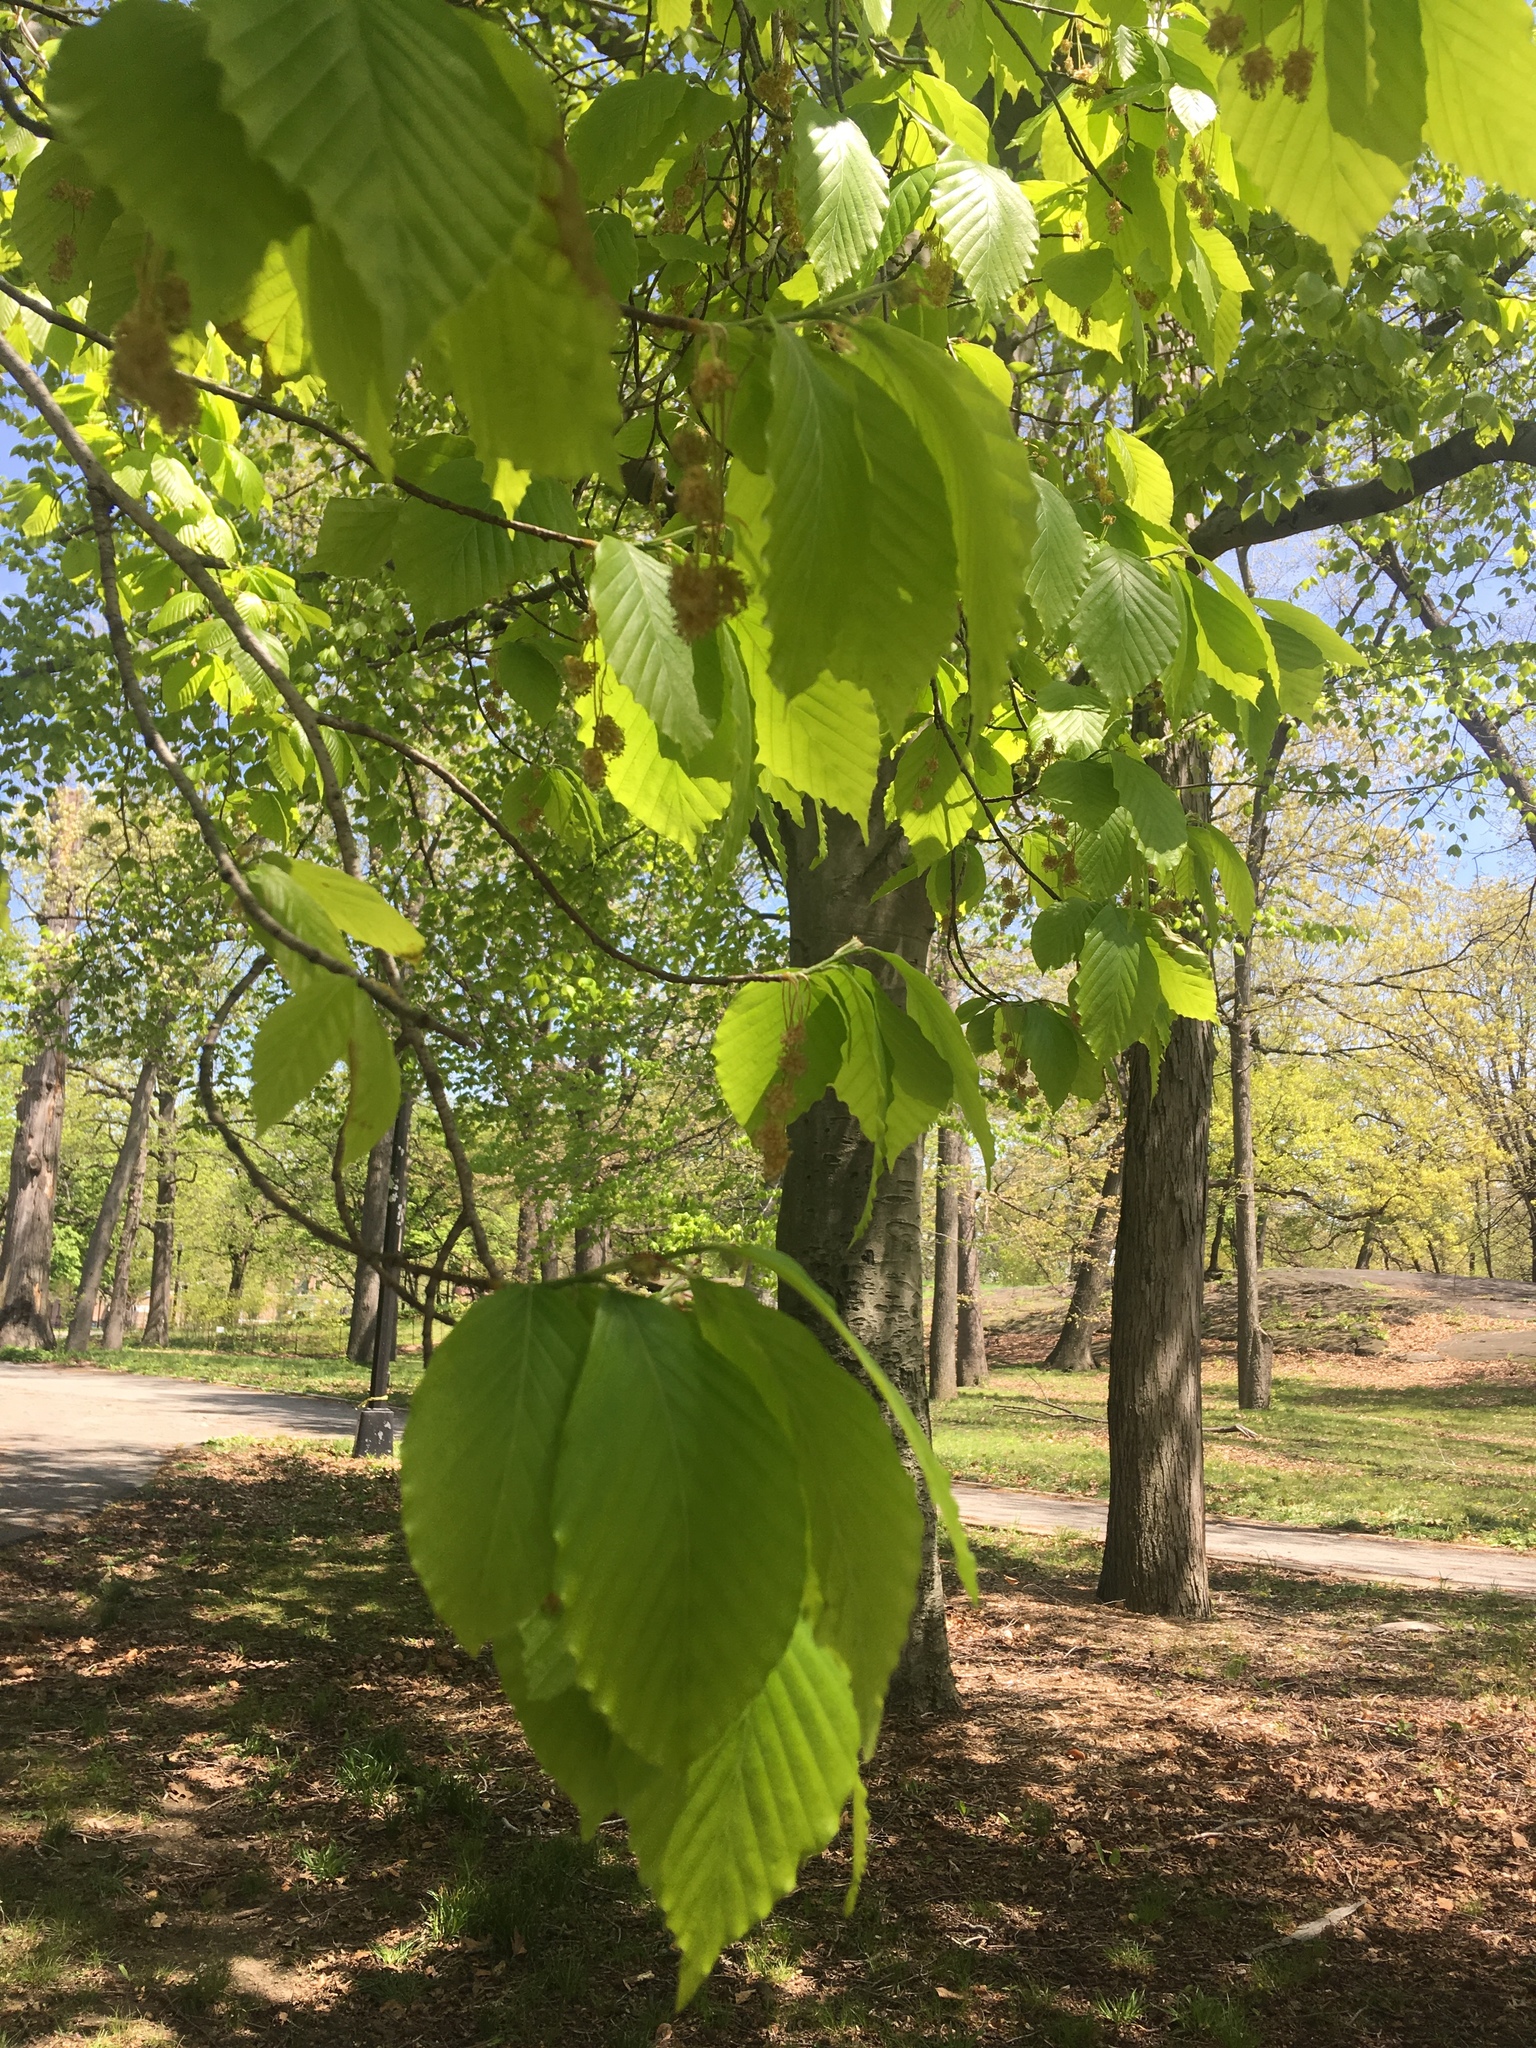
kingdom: Plantae
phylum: Tracheophyta
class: Magnoliopsida
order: Fagales
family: Fagaceae
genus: Fagus
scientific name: Fagus grandifolia
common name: American beech
